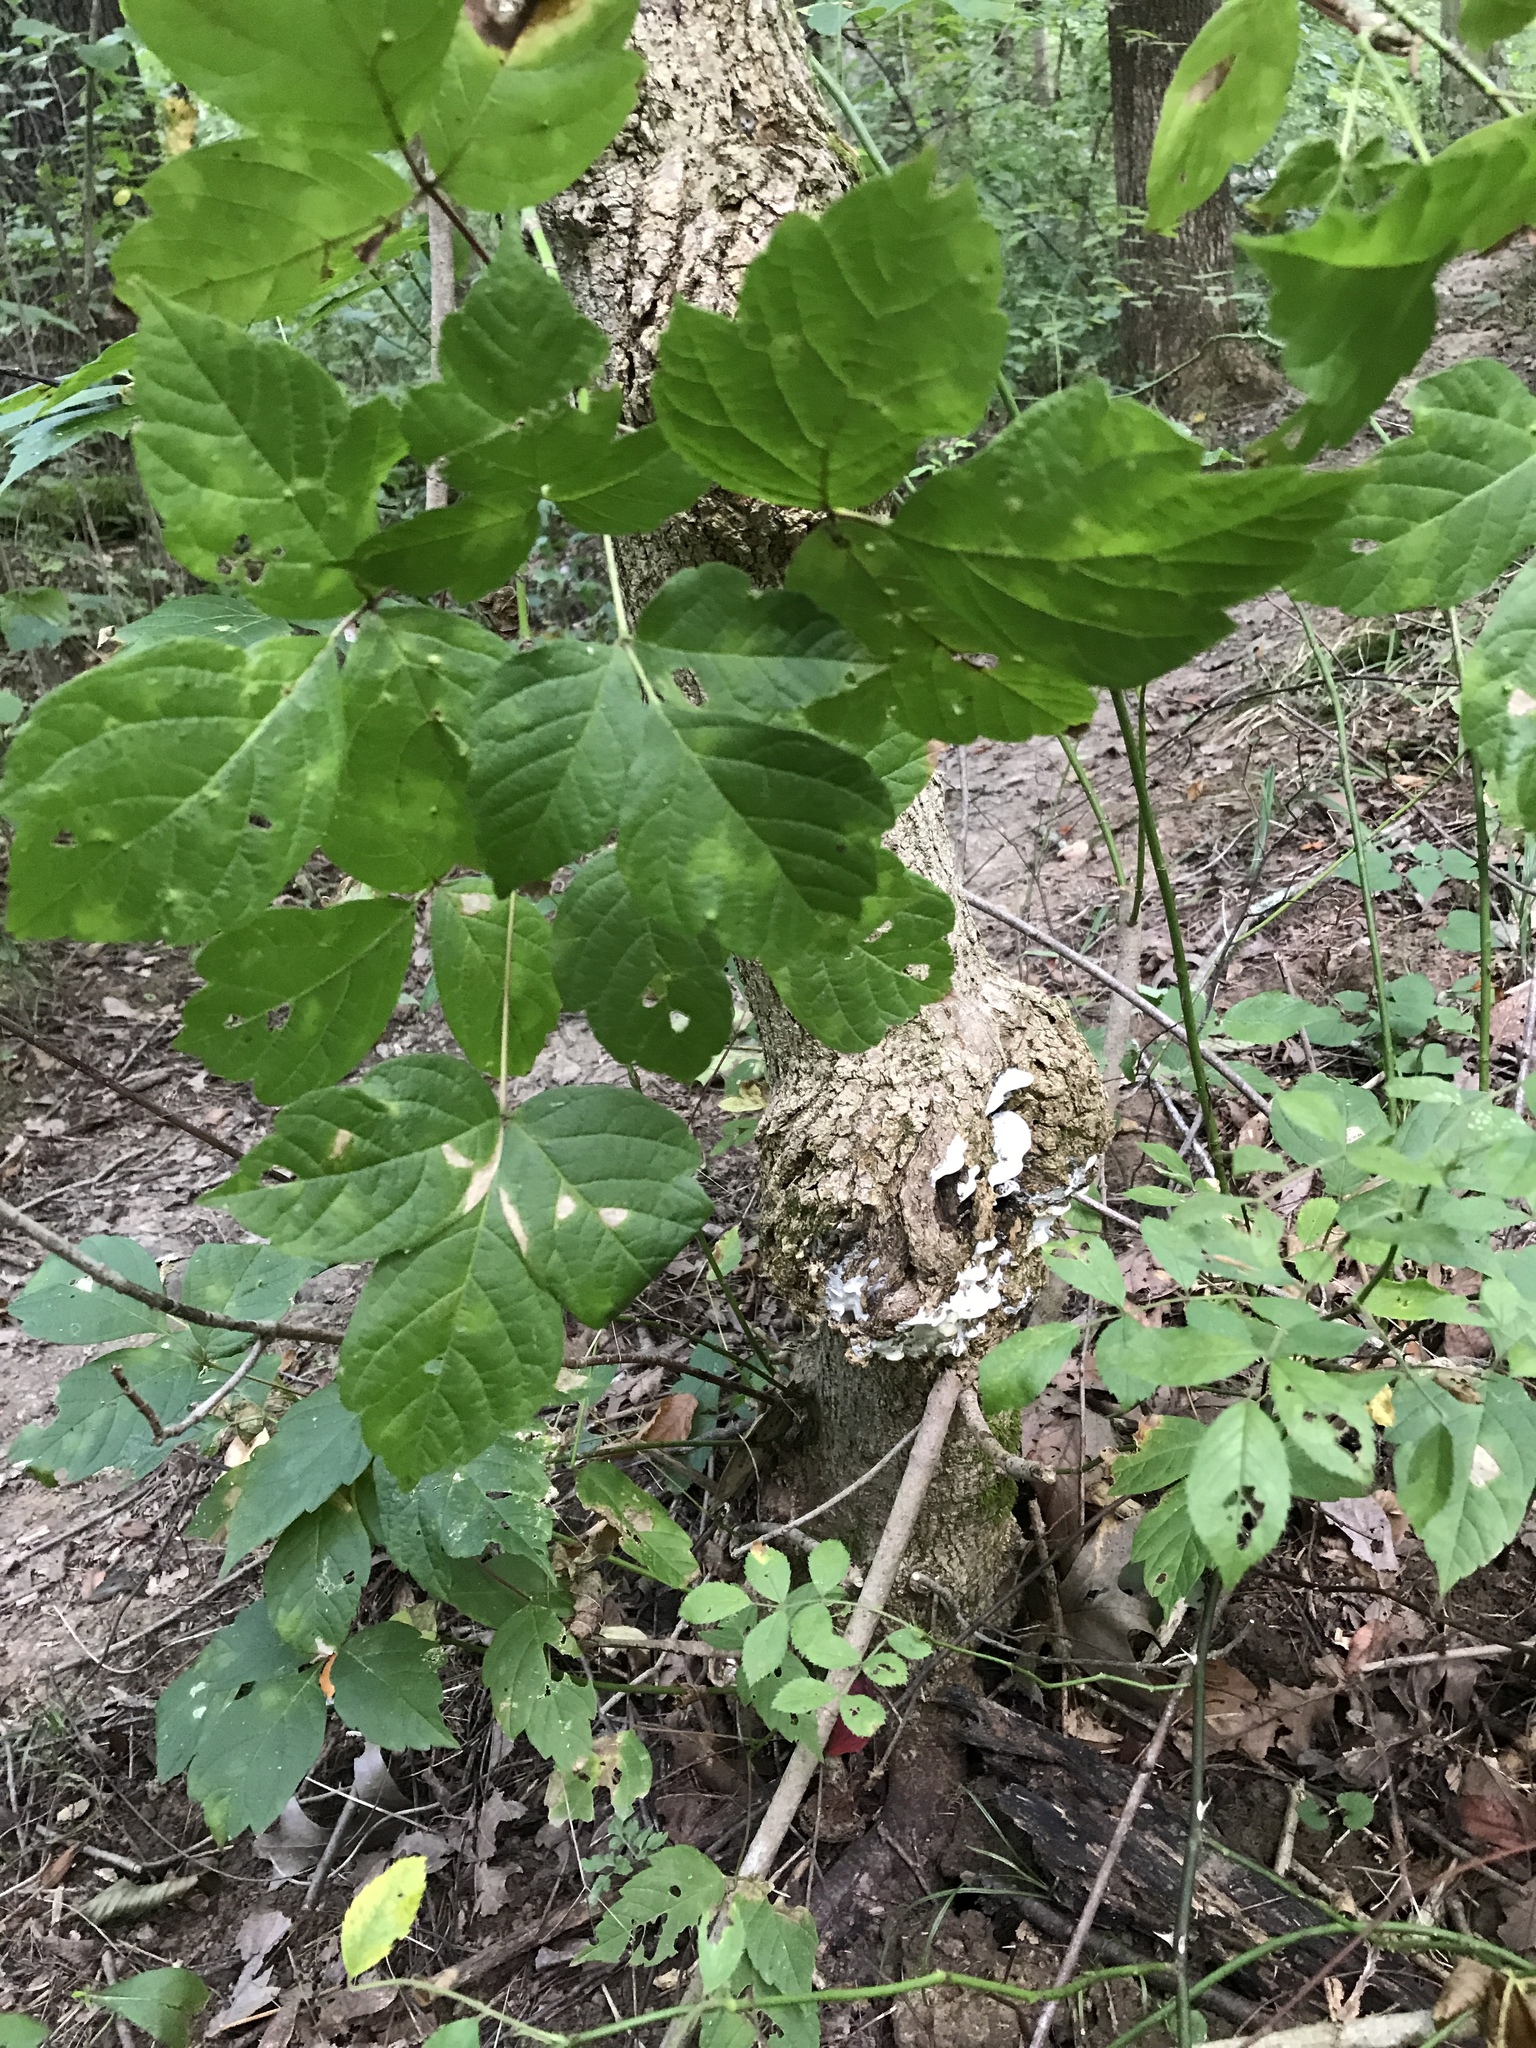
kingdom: Fungi
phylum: Basidiomycota
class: Agaricomycetes
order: Hymenochaetales
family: Oxyporaceae
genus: Oxyporus
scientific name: Oxyporus populinus
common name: Poplar bracket
